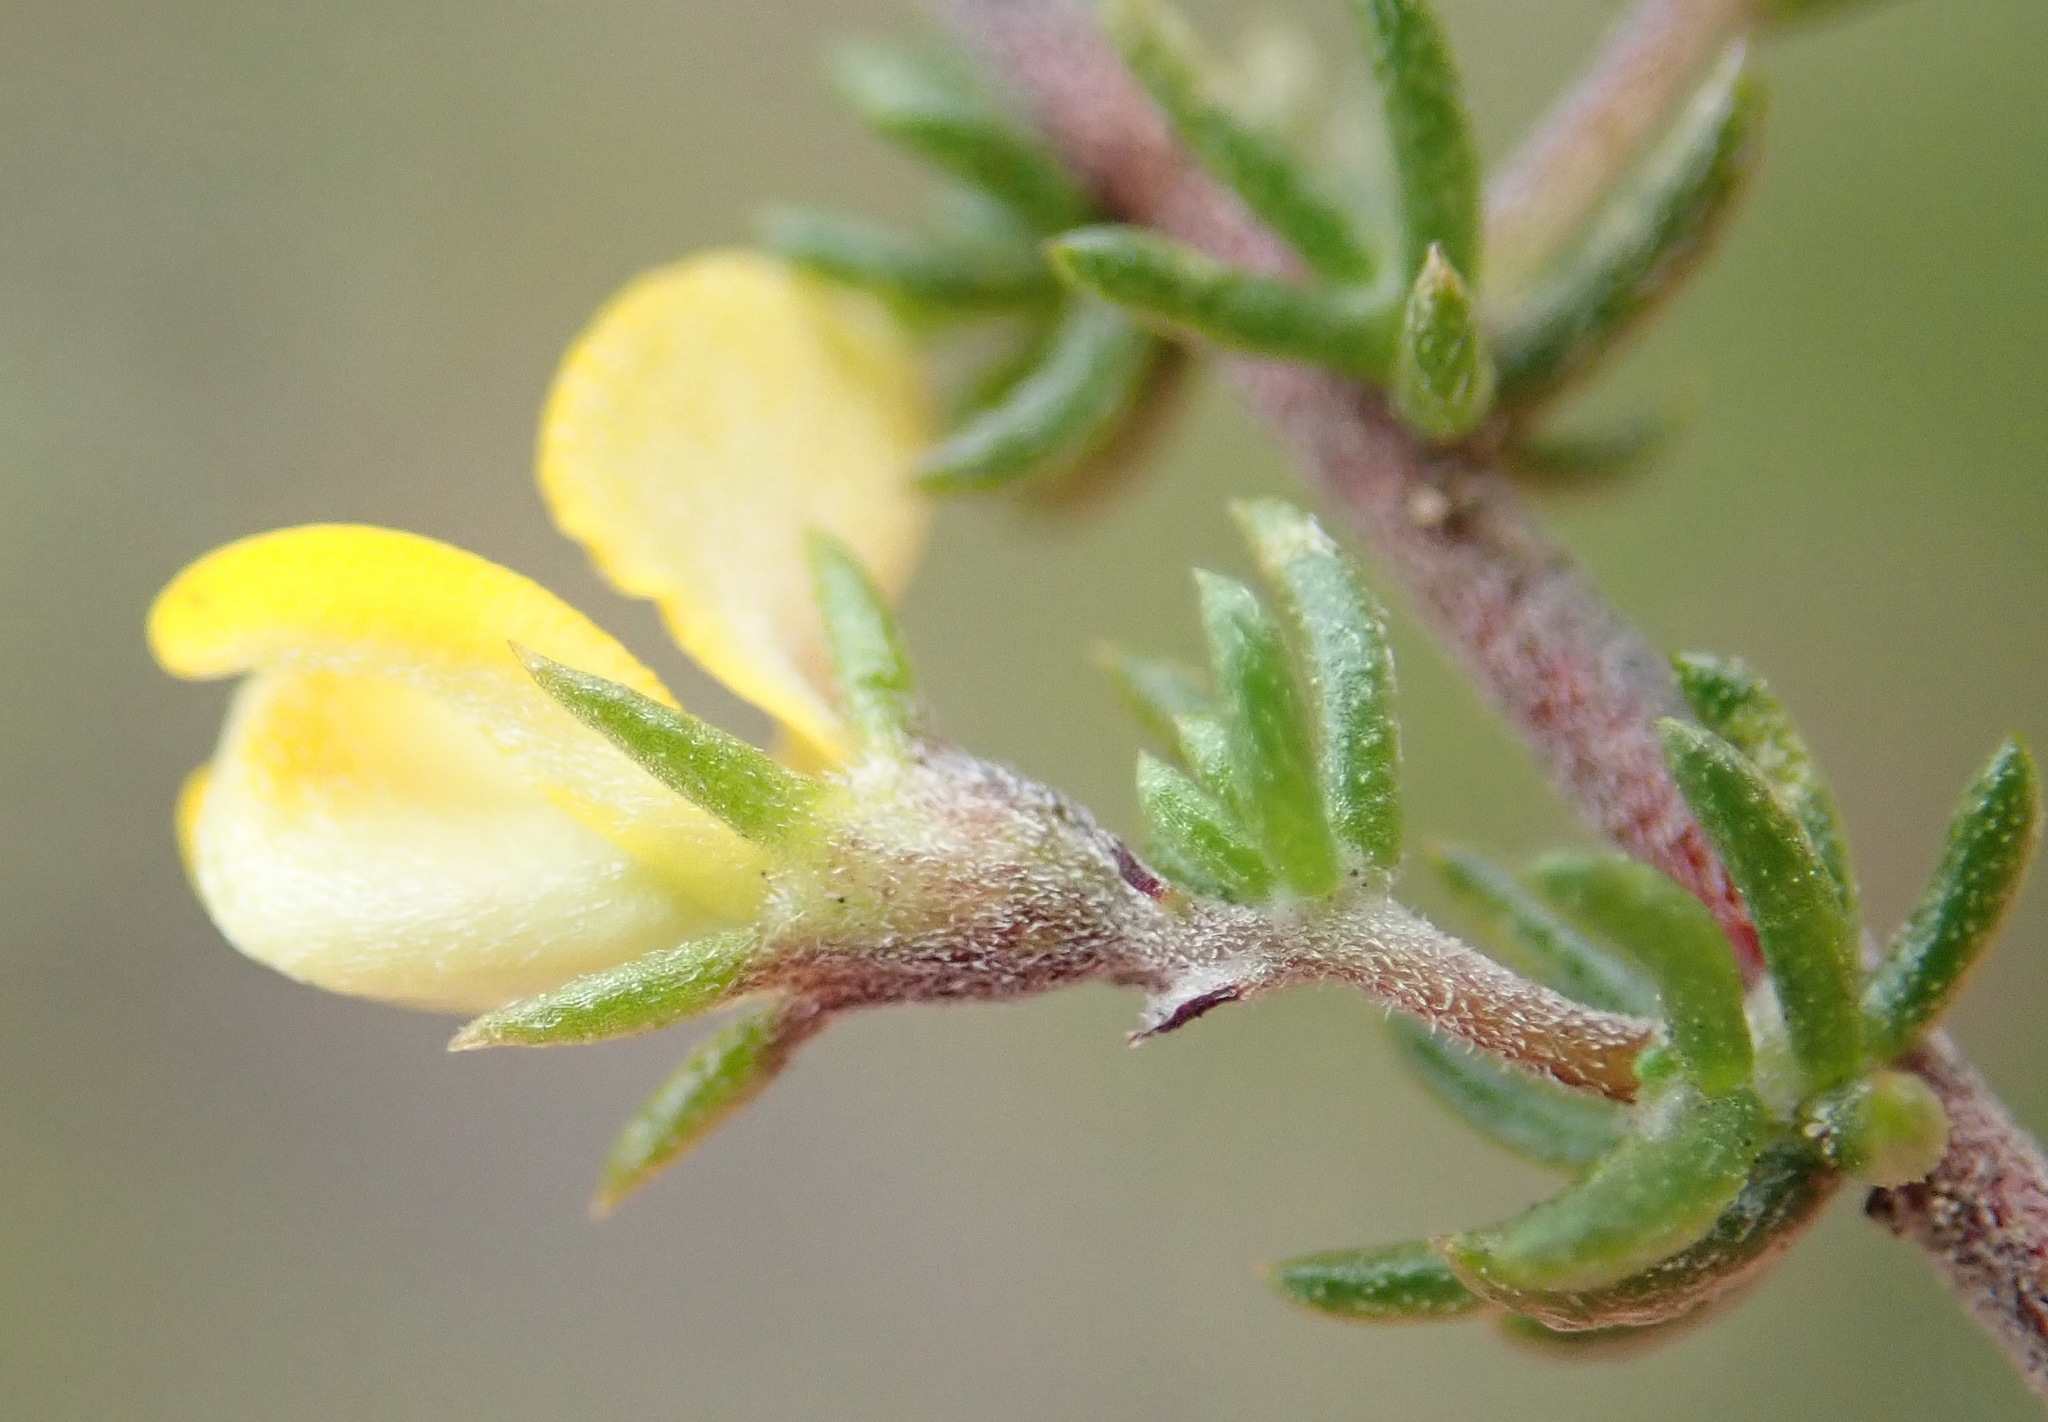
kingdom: Plantae
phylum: Tracheophyta
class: Magnoliopsida
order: Fabales
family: Fabaceae
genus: Aspalathus
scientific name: Aspalathus rubens
